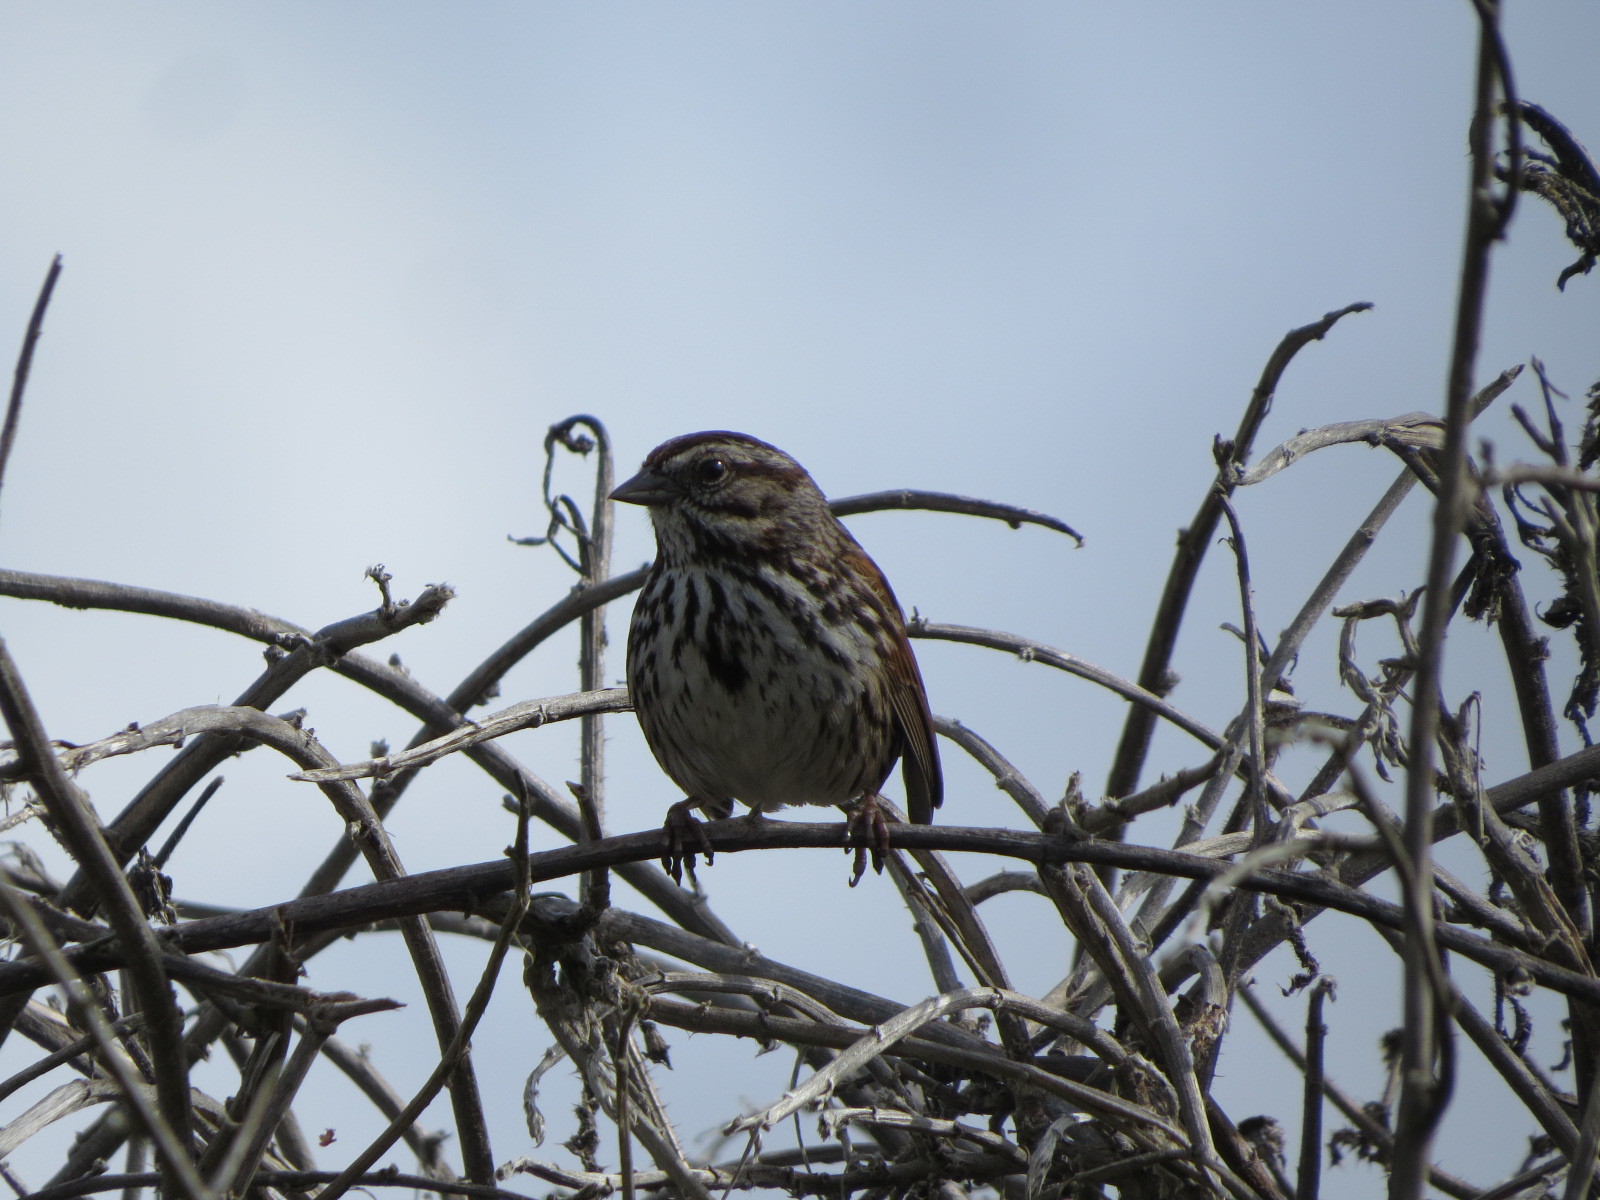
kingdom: Animalia
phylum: Chordata
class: Aves
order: Passeriformes
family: Passerellidae
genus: Melospiza
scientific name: Melospiza melodia
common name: Song sparrow
